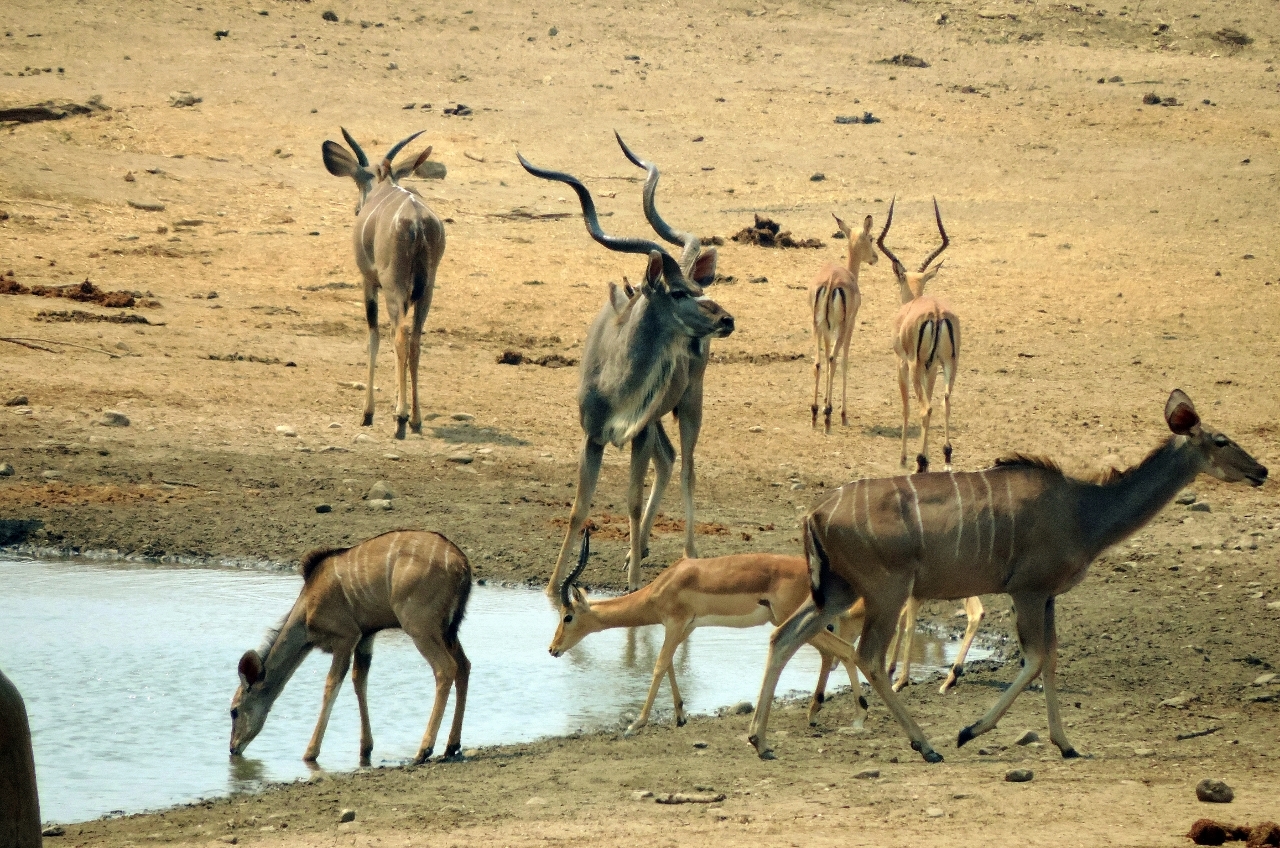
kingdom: Animalia
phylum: Chordata
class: Mammalia
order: Artiodactyla
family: Bovidae
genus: Tragelaphus
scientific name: Tragelaphus strepsiceros
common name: Greater kudu
